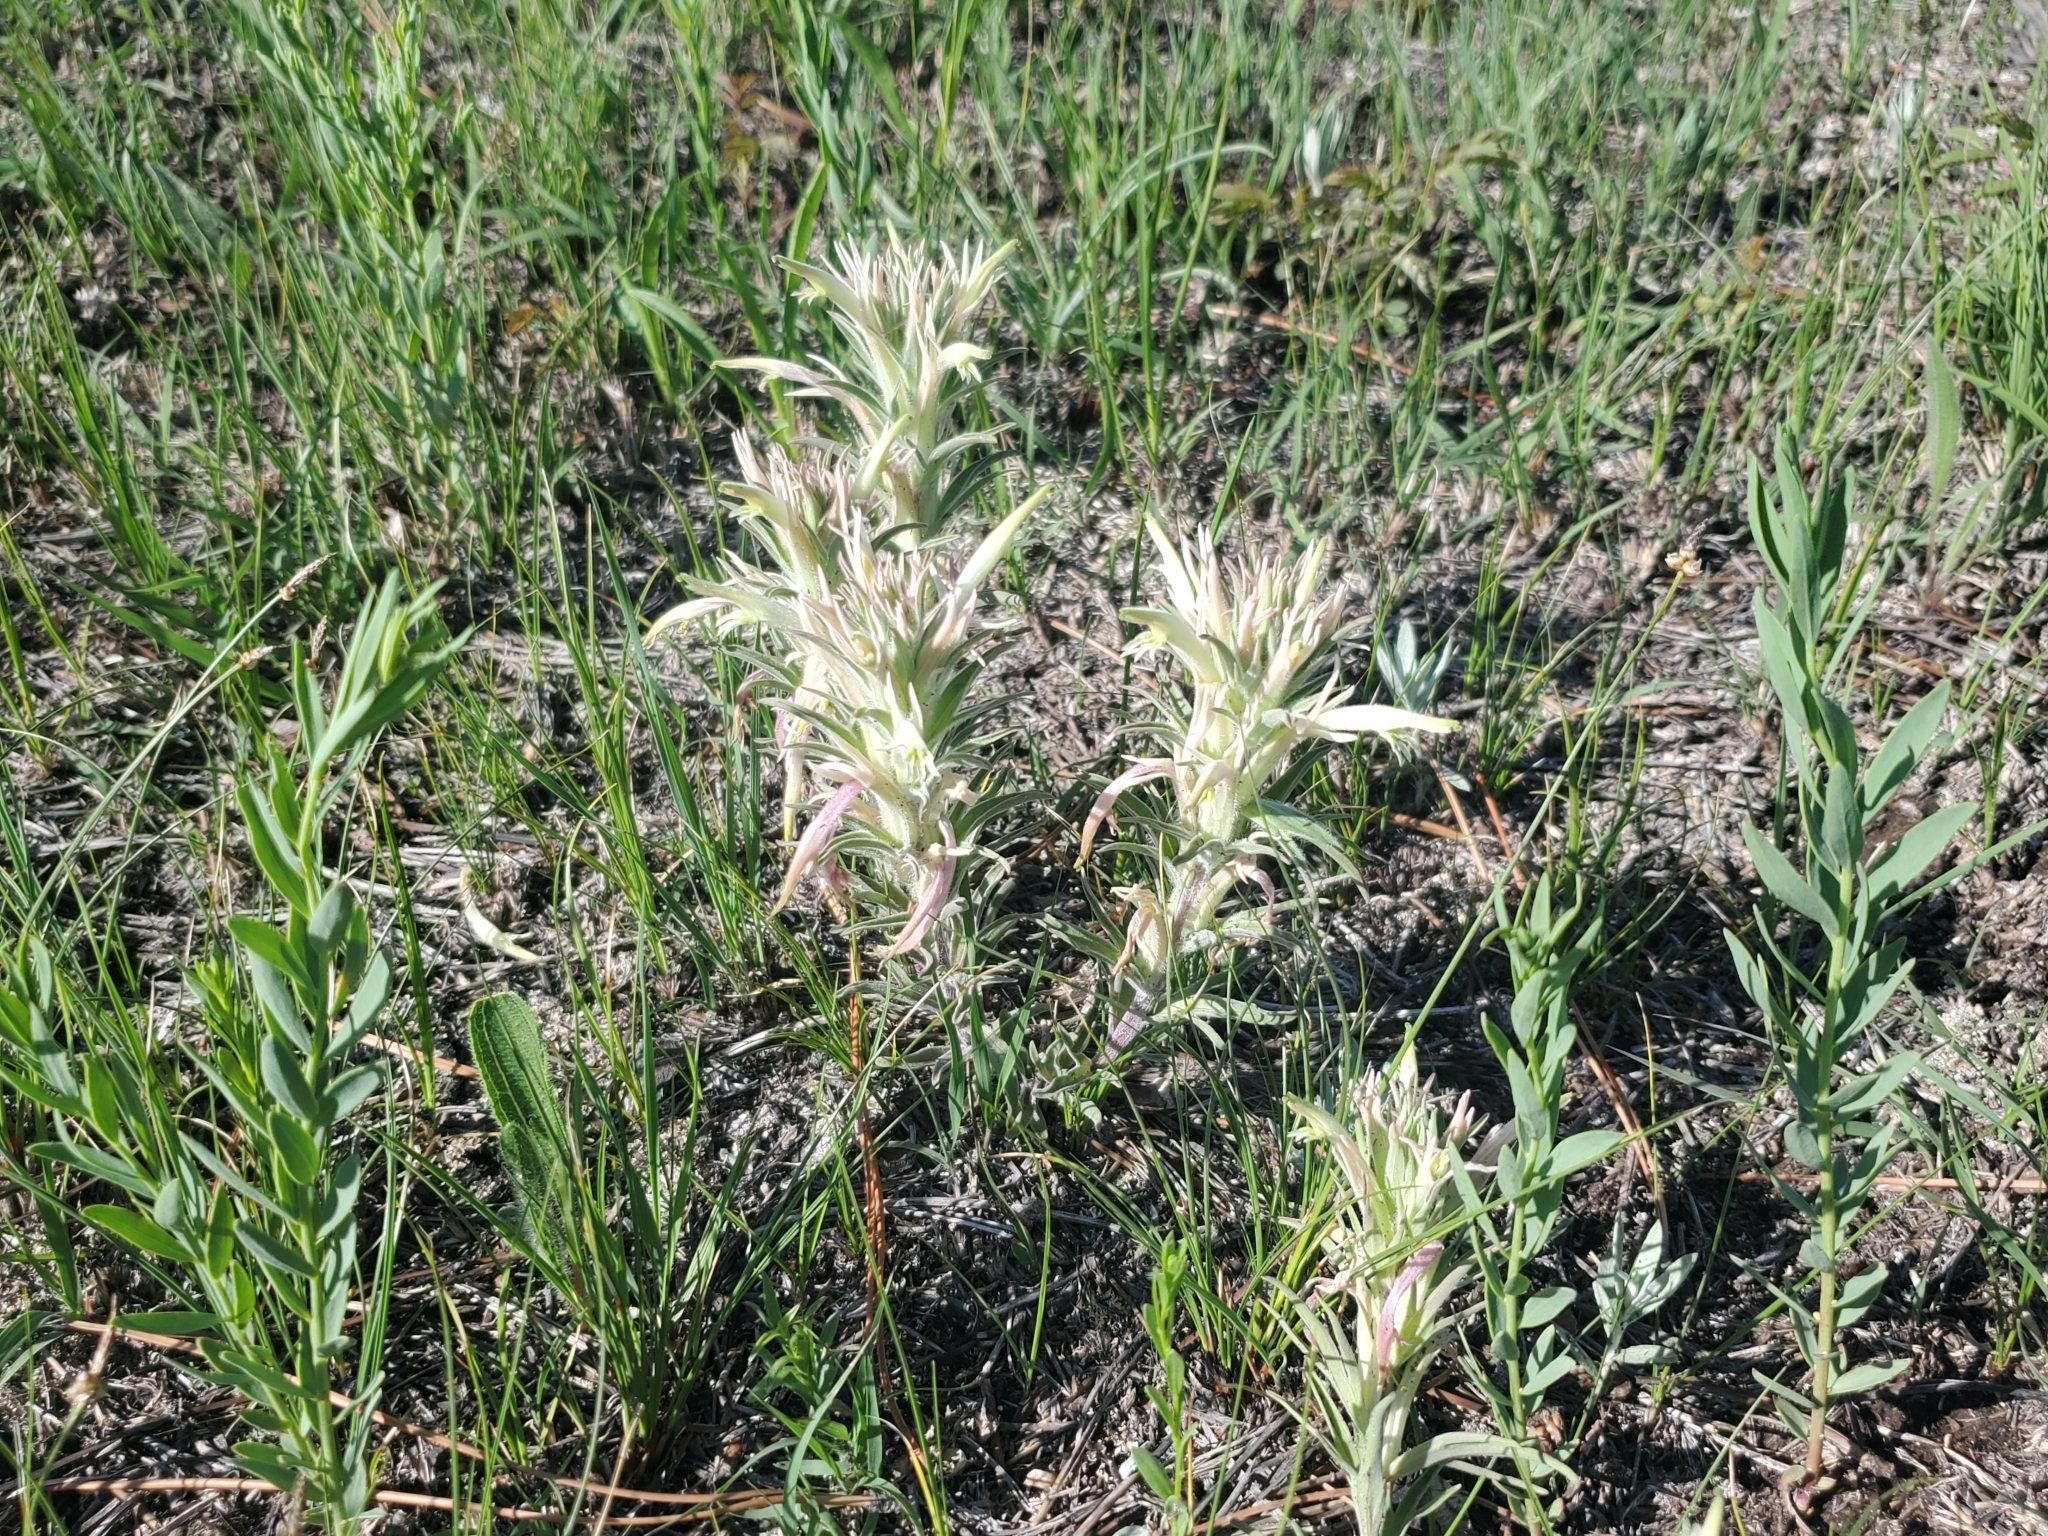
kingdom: Plantae
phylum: Tracheophyta
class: Magnoliopsida
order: Lamiales
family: Orobanchaceae
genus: Castilleja
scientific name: Castilleja sessiliflora
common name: Downy paintbrush
